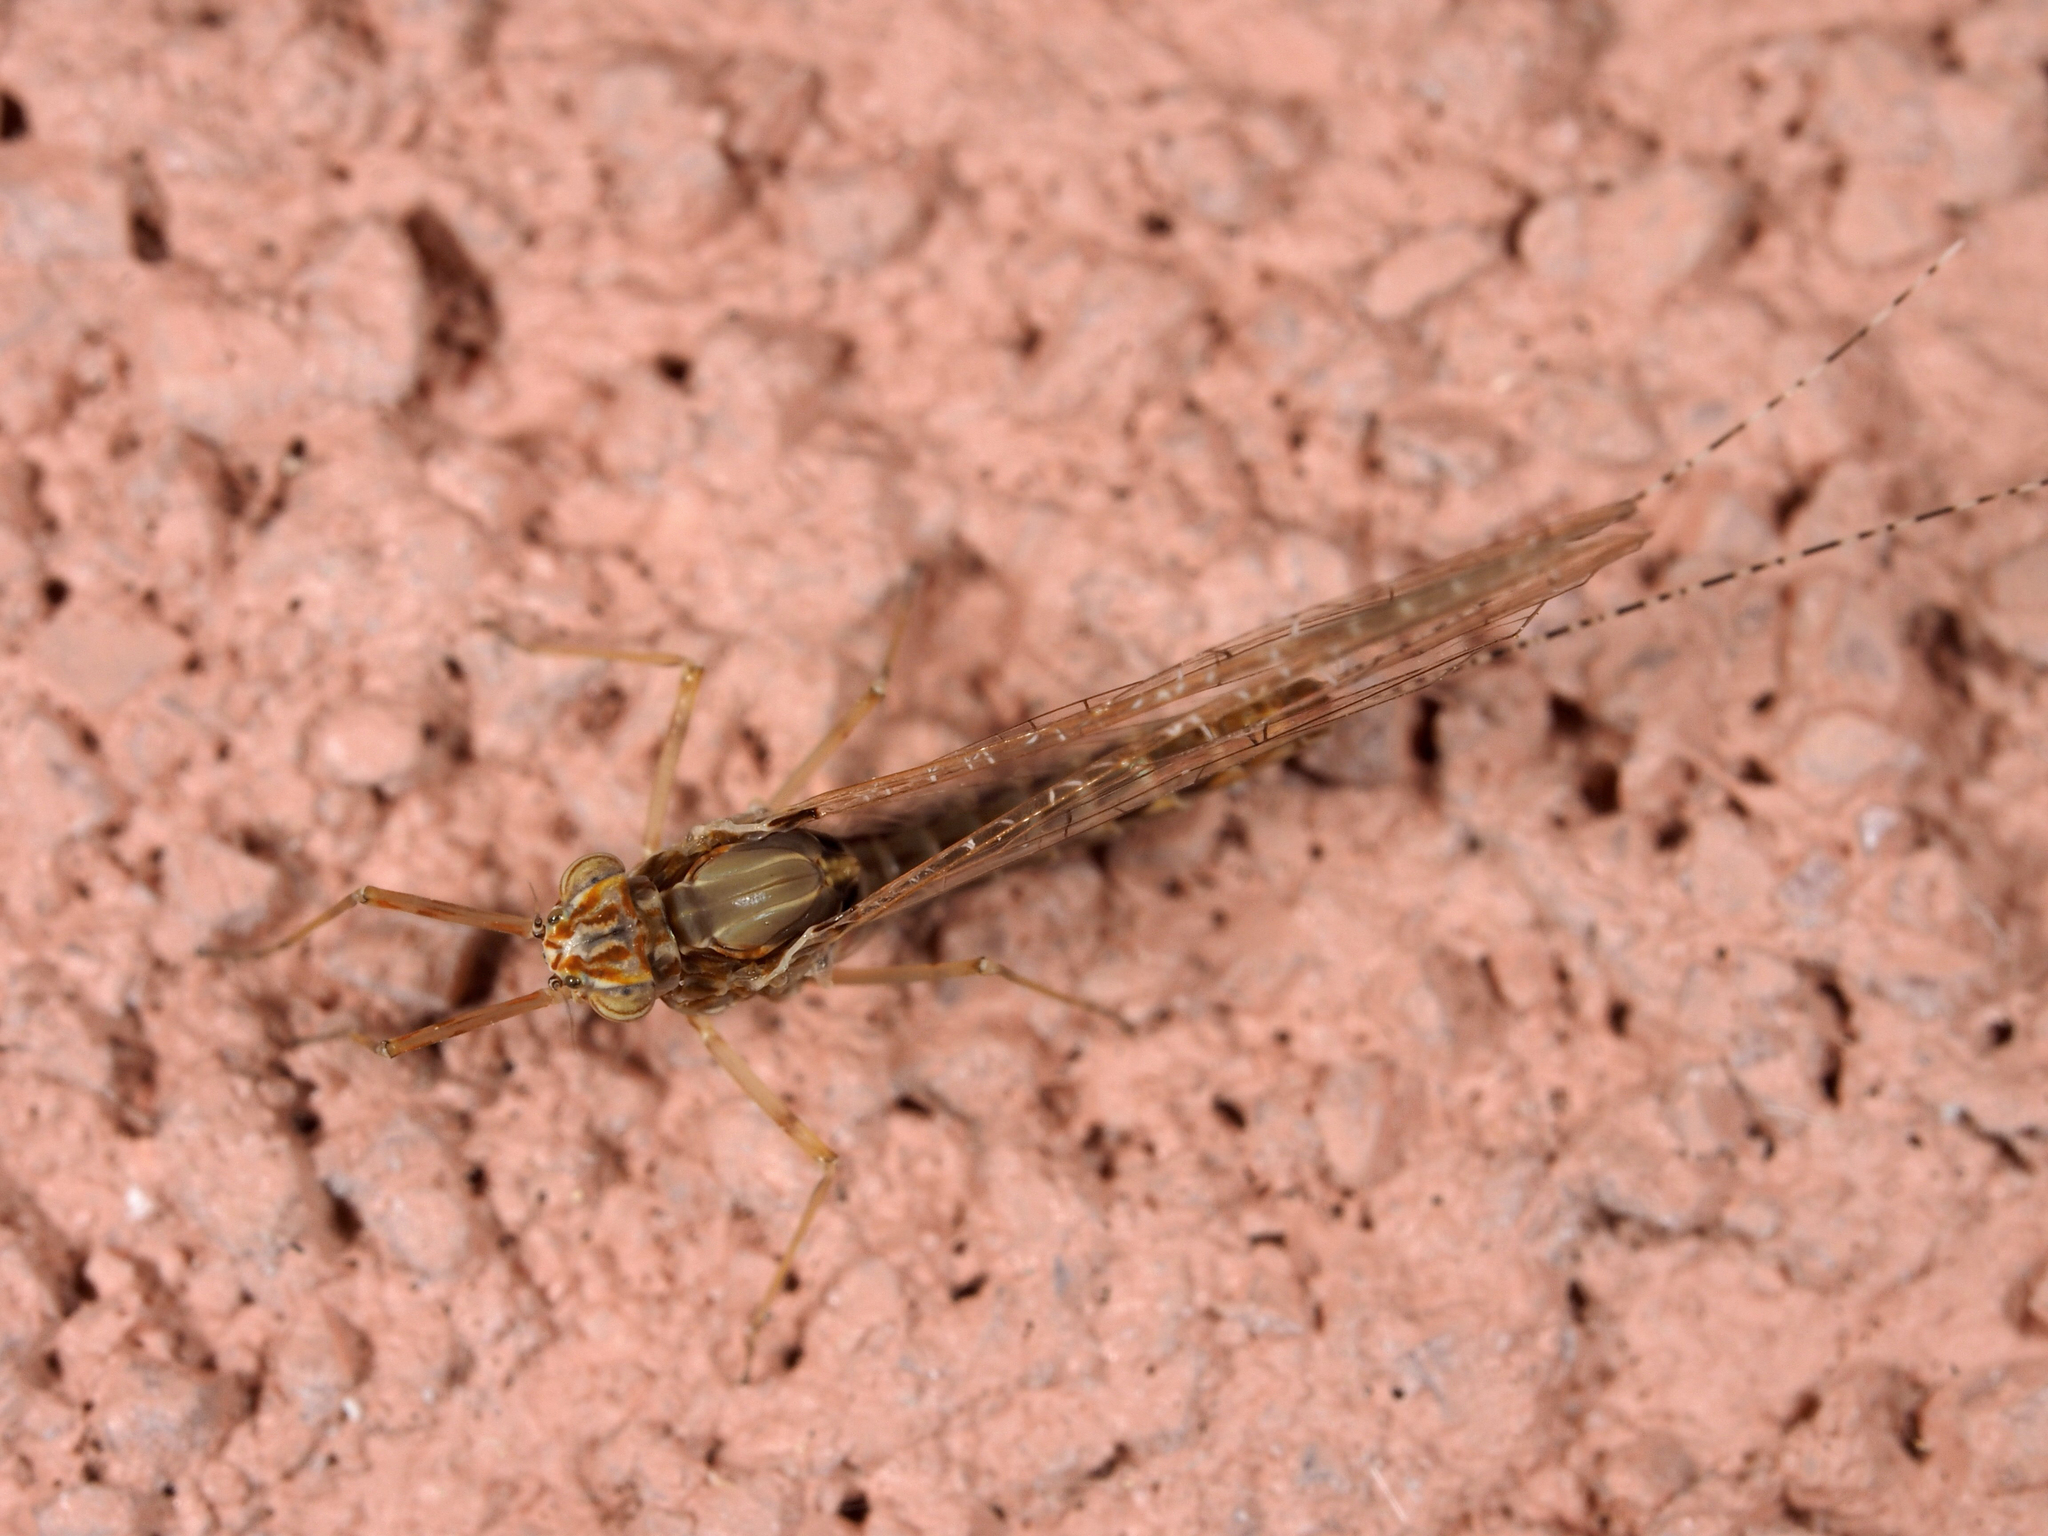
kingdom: Animalia
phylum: Arthropoda
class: Insecta
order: Ephemeroptera
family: Baetidae
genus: Cloeon
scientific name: Cloeon dipterum
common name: Pond olive
